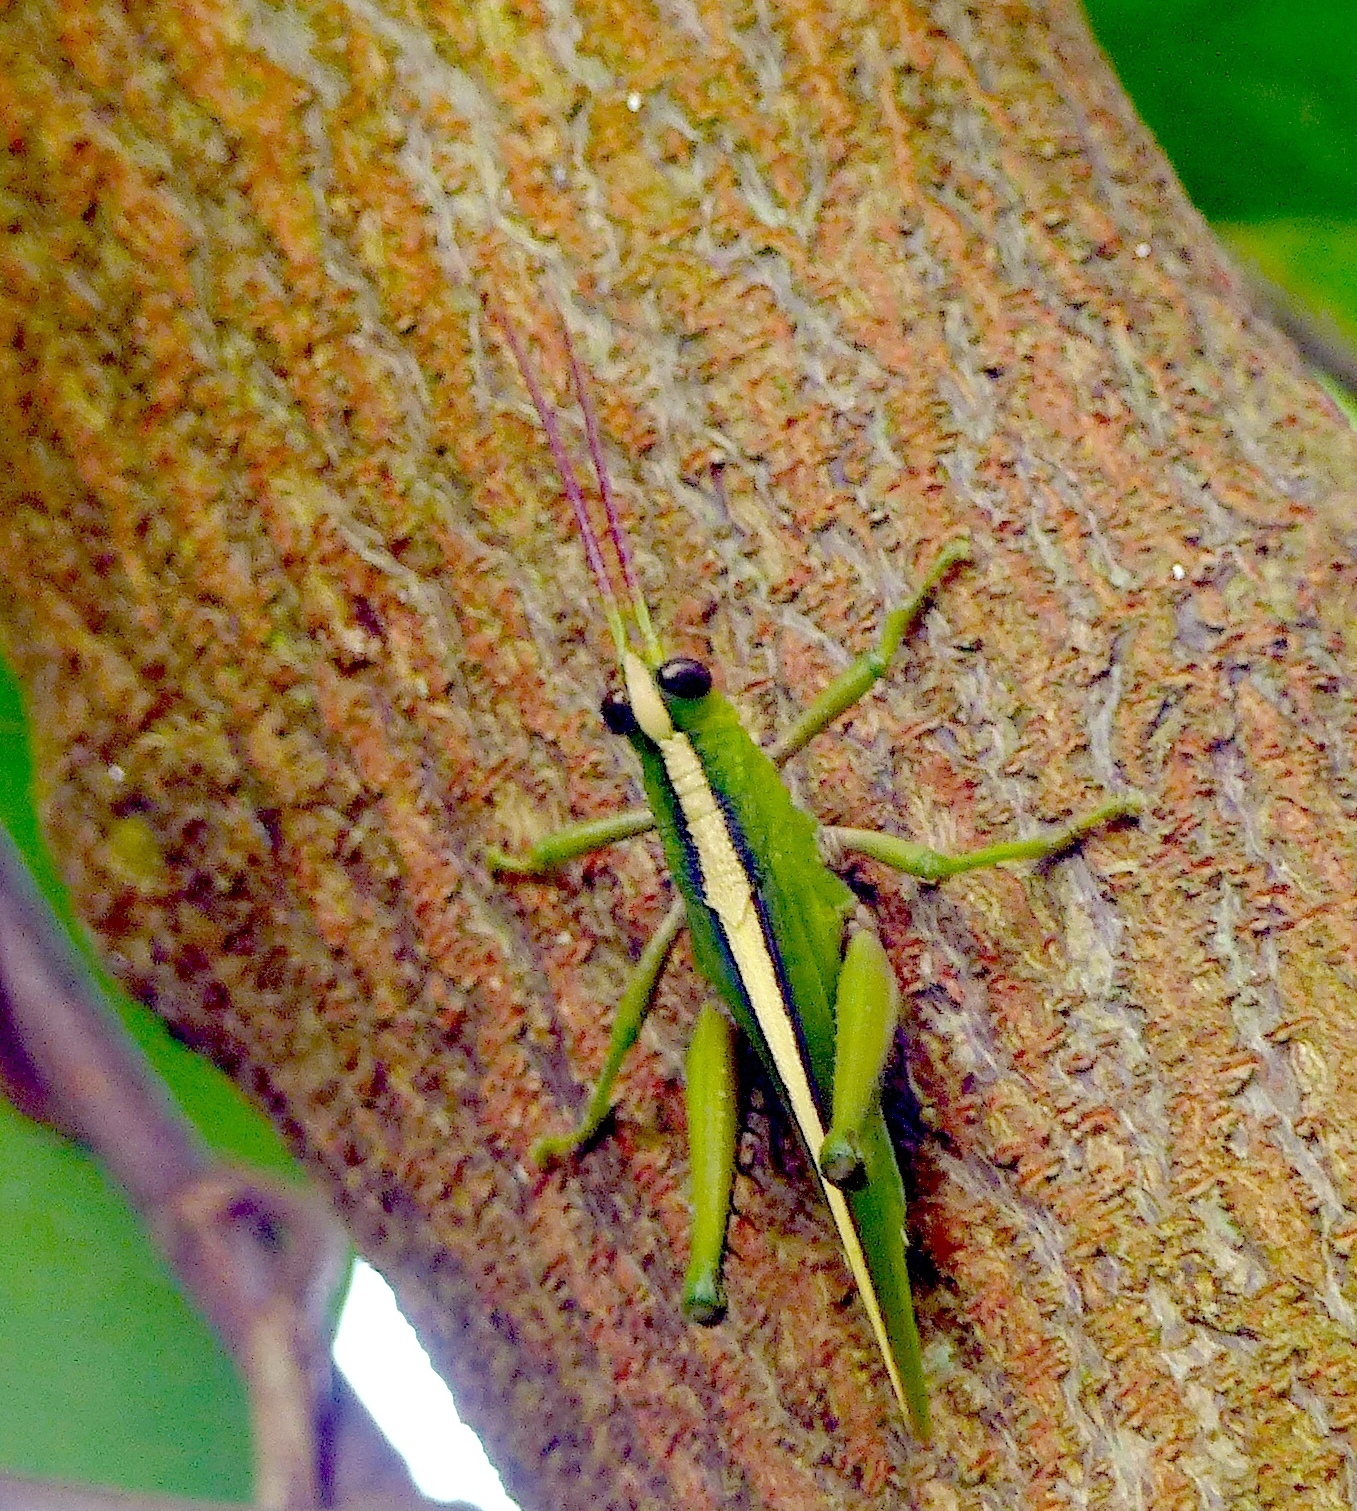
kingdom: Animalia
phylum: Arthropoda
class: Insecta
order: Orthoptera
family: Romaleidae
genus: Agriacris
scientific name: Agriacris auripennis
